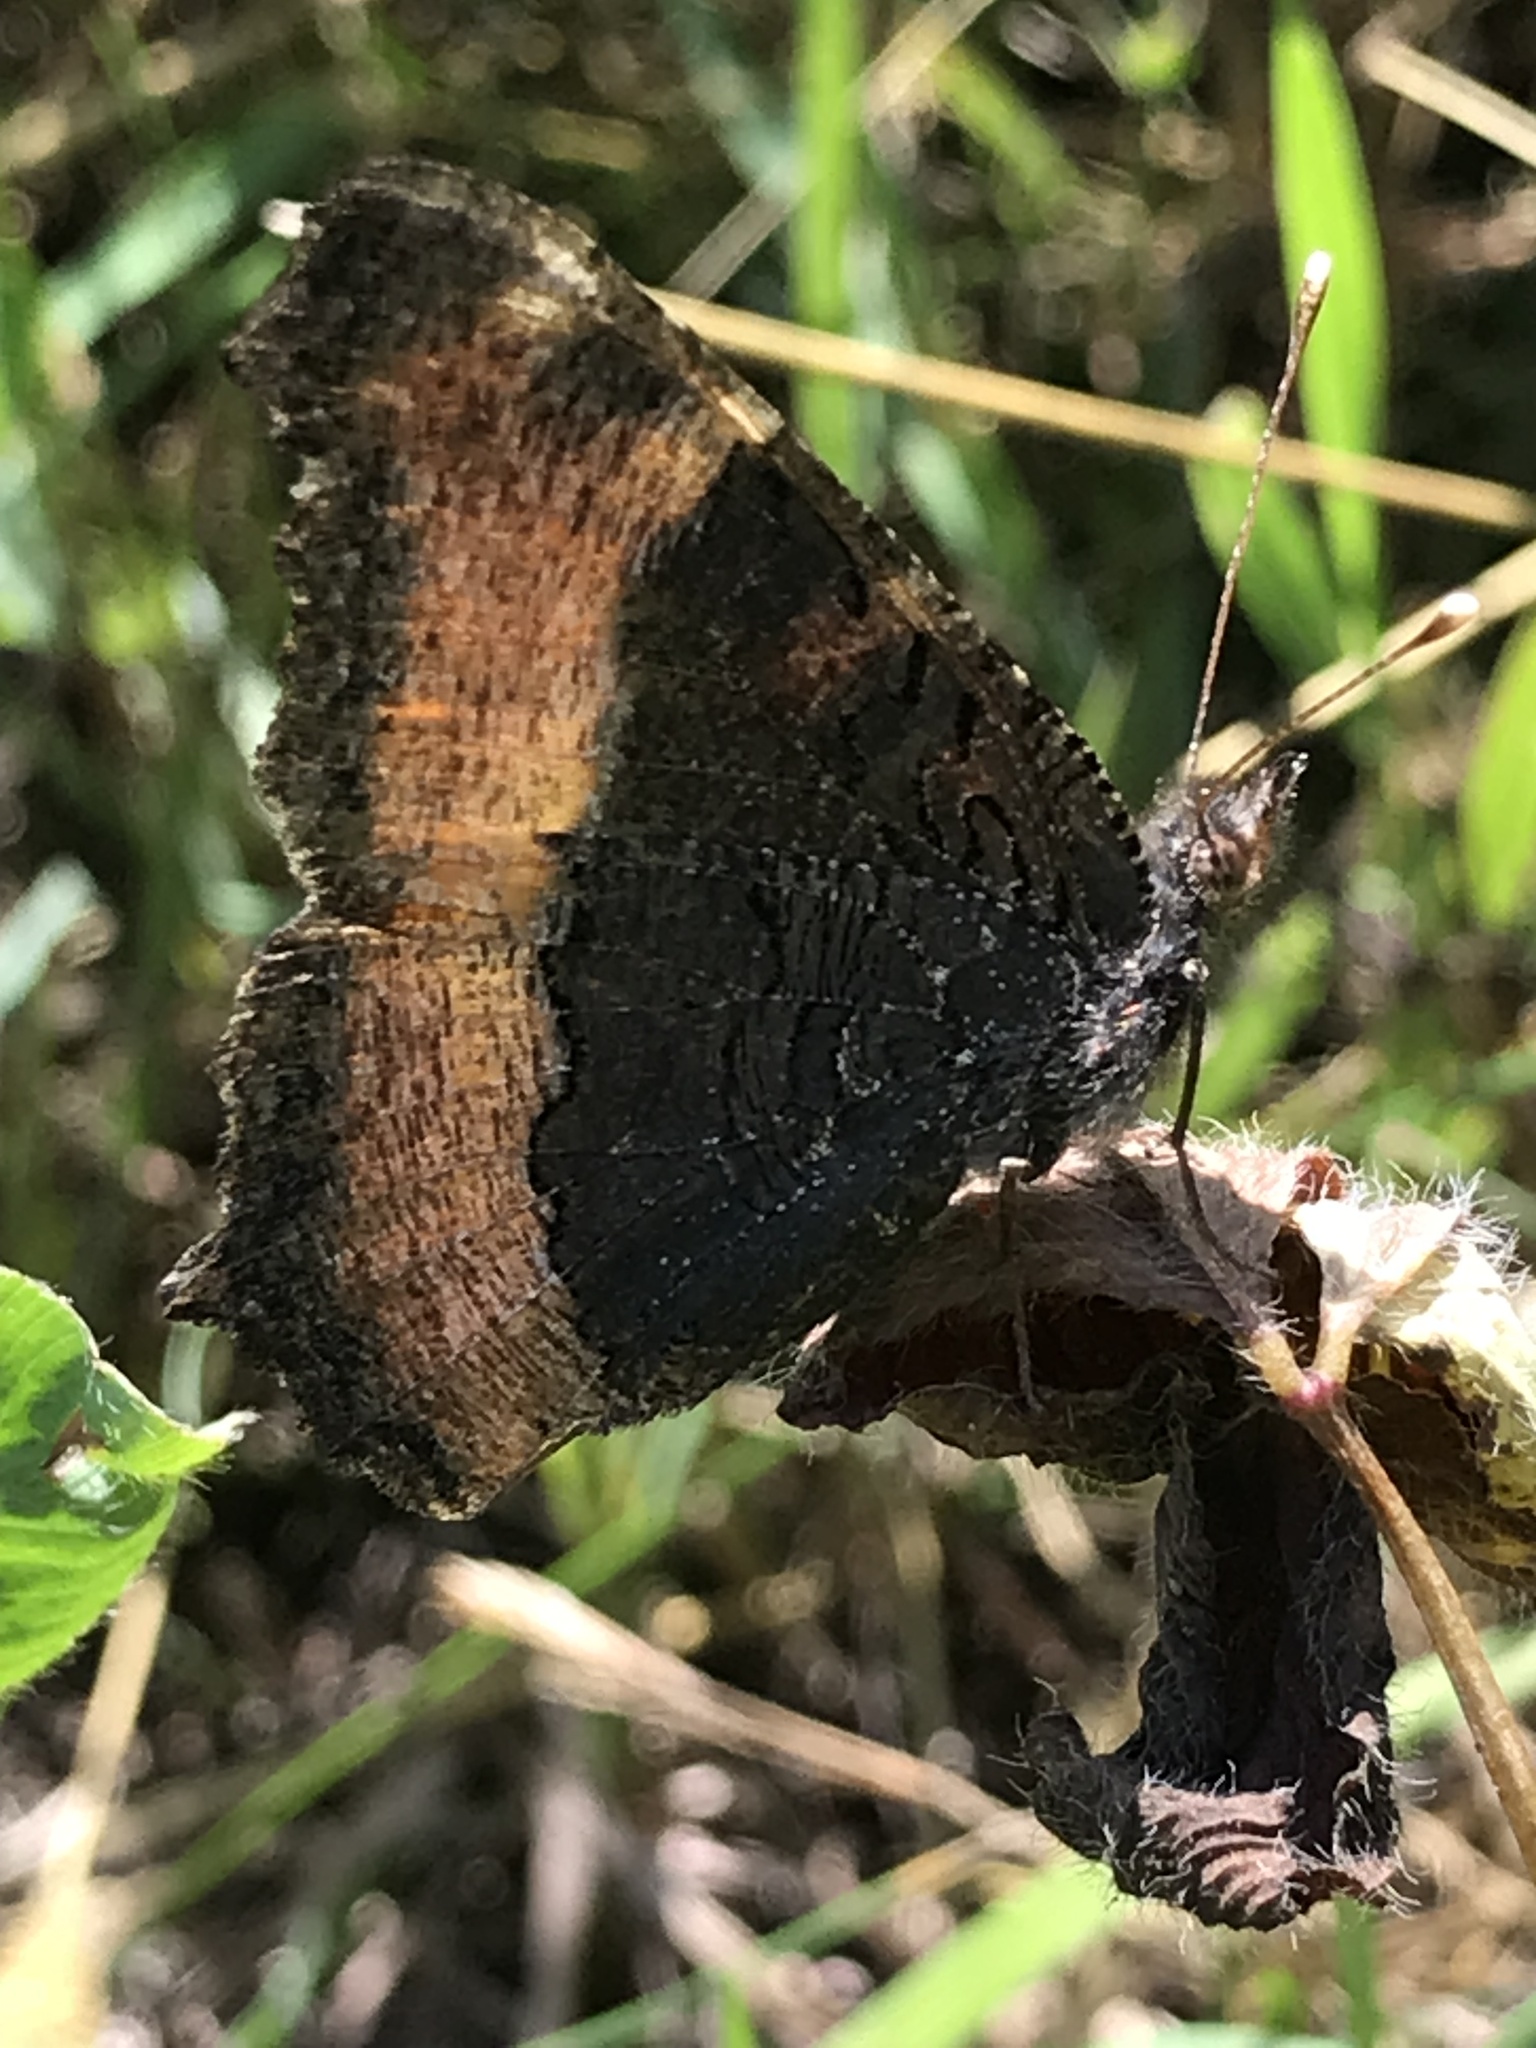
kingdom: Animalia
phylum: Arthropoda
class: Insecta
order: Lepidoptera
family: Nymphalidae
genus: Aglais
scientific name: Aglais milberti
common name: Milbert's tortoiseshell
